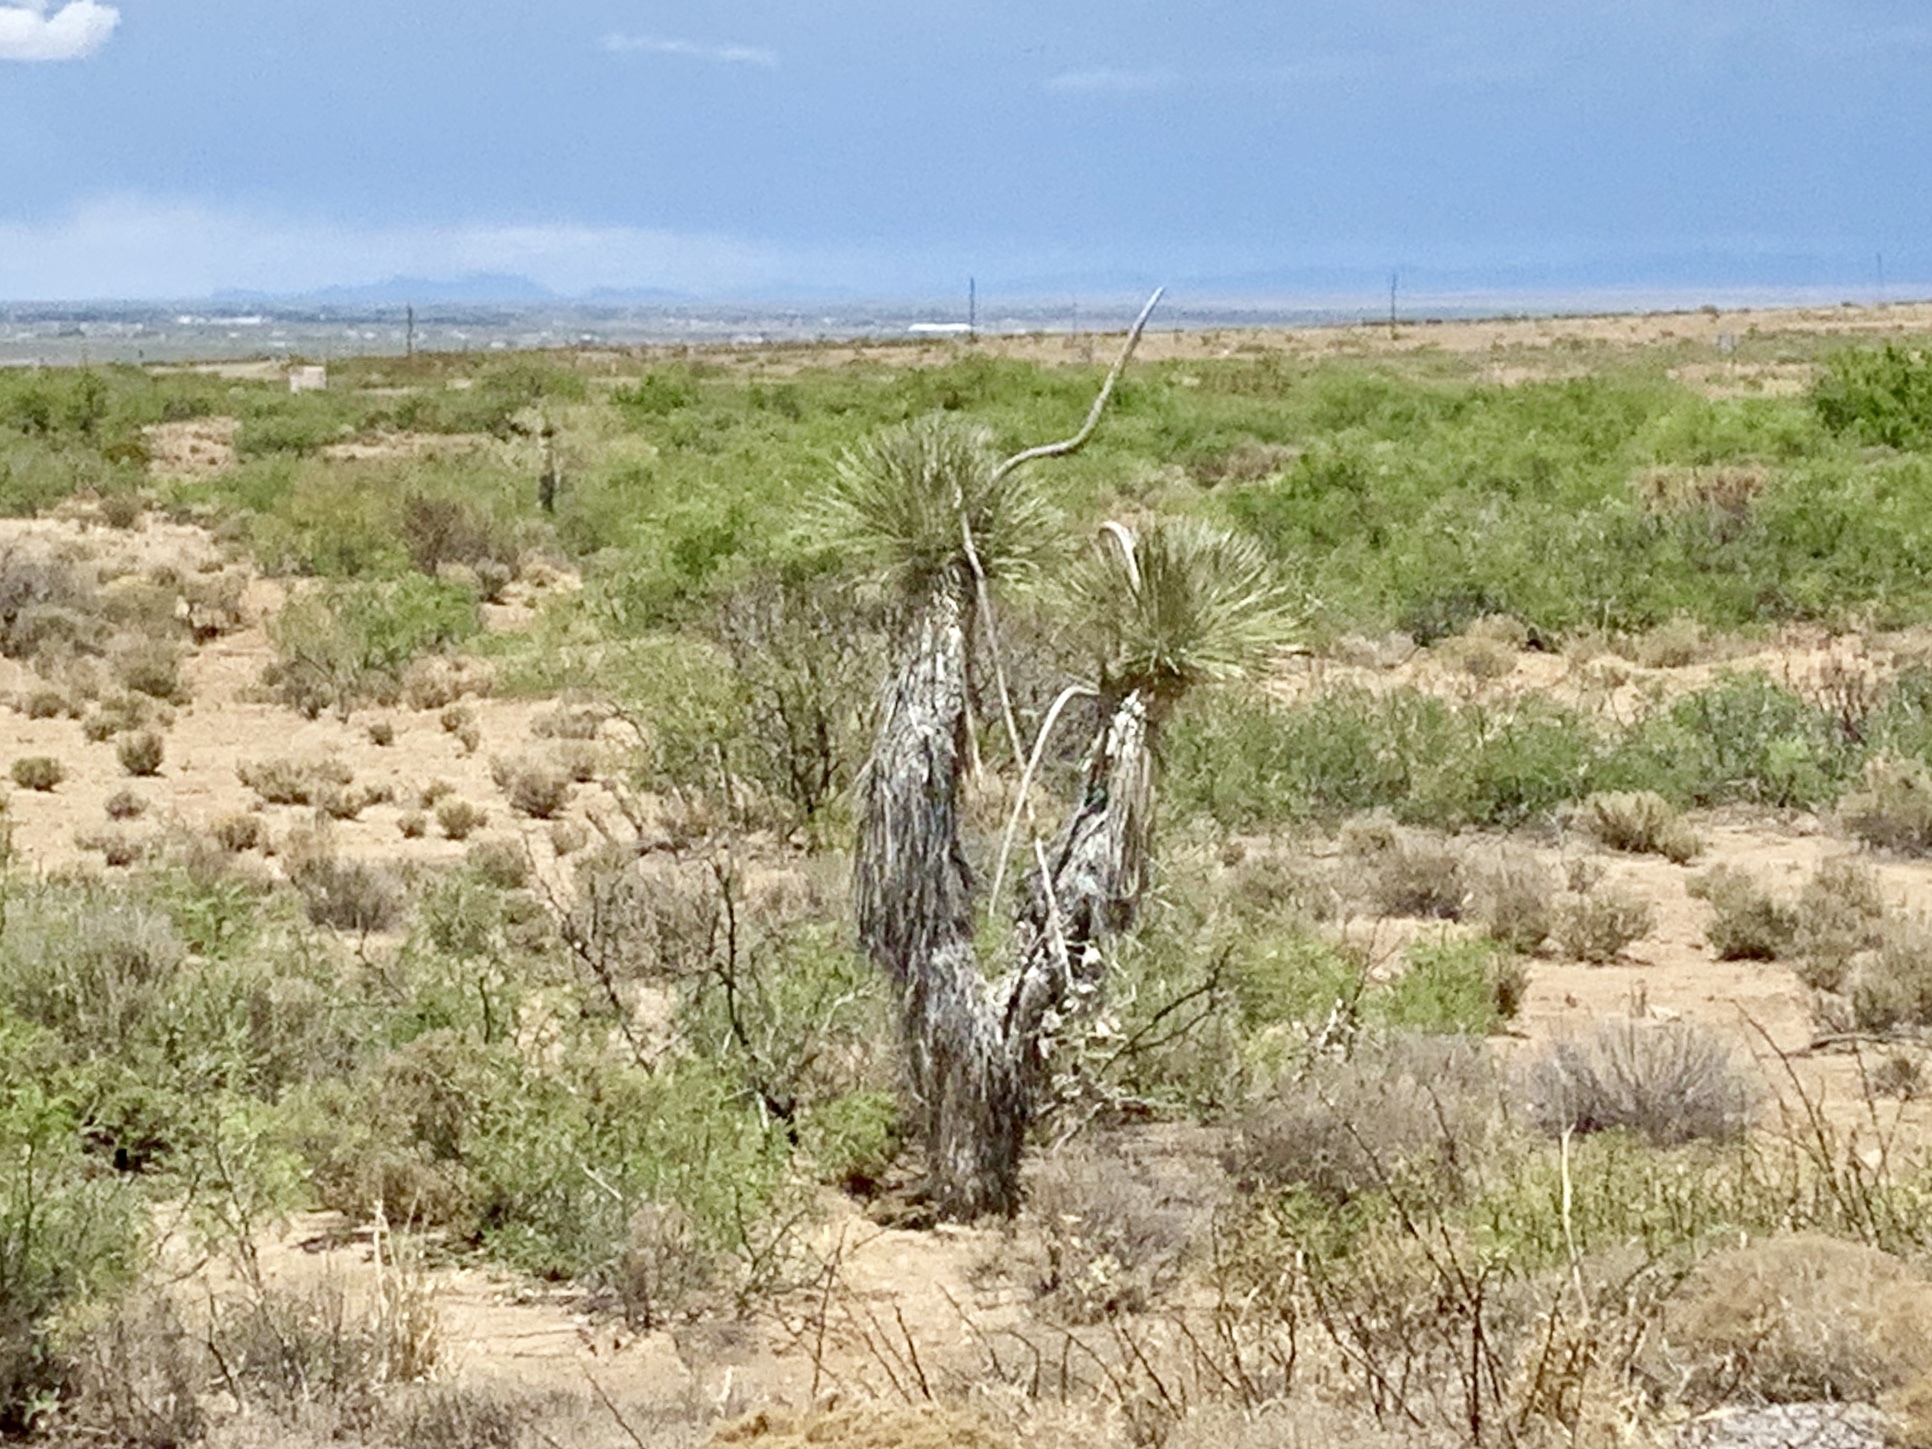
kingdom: Plantae
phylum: Tracheophyta
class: Liliopsida
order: Asparagales
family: Asparagaceae
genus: Yucca
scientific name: Yucca elata
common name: Palmella
